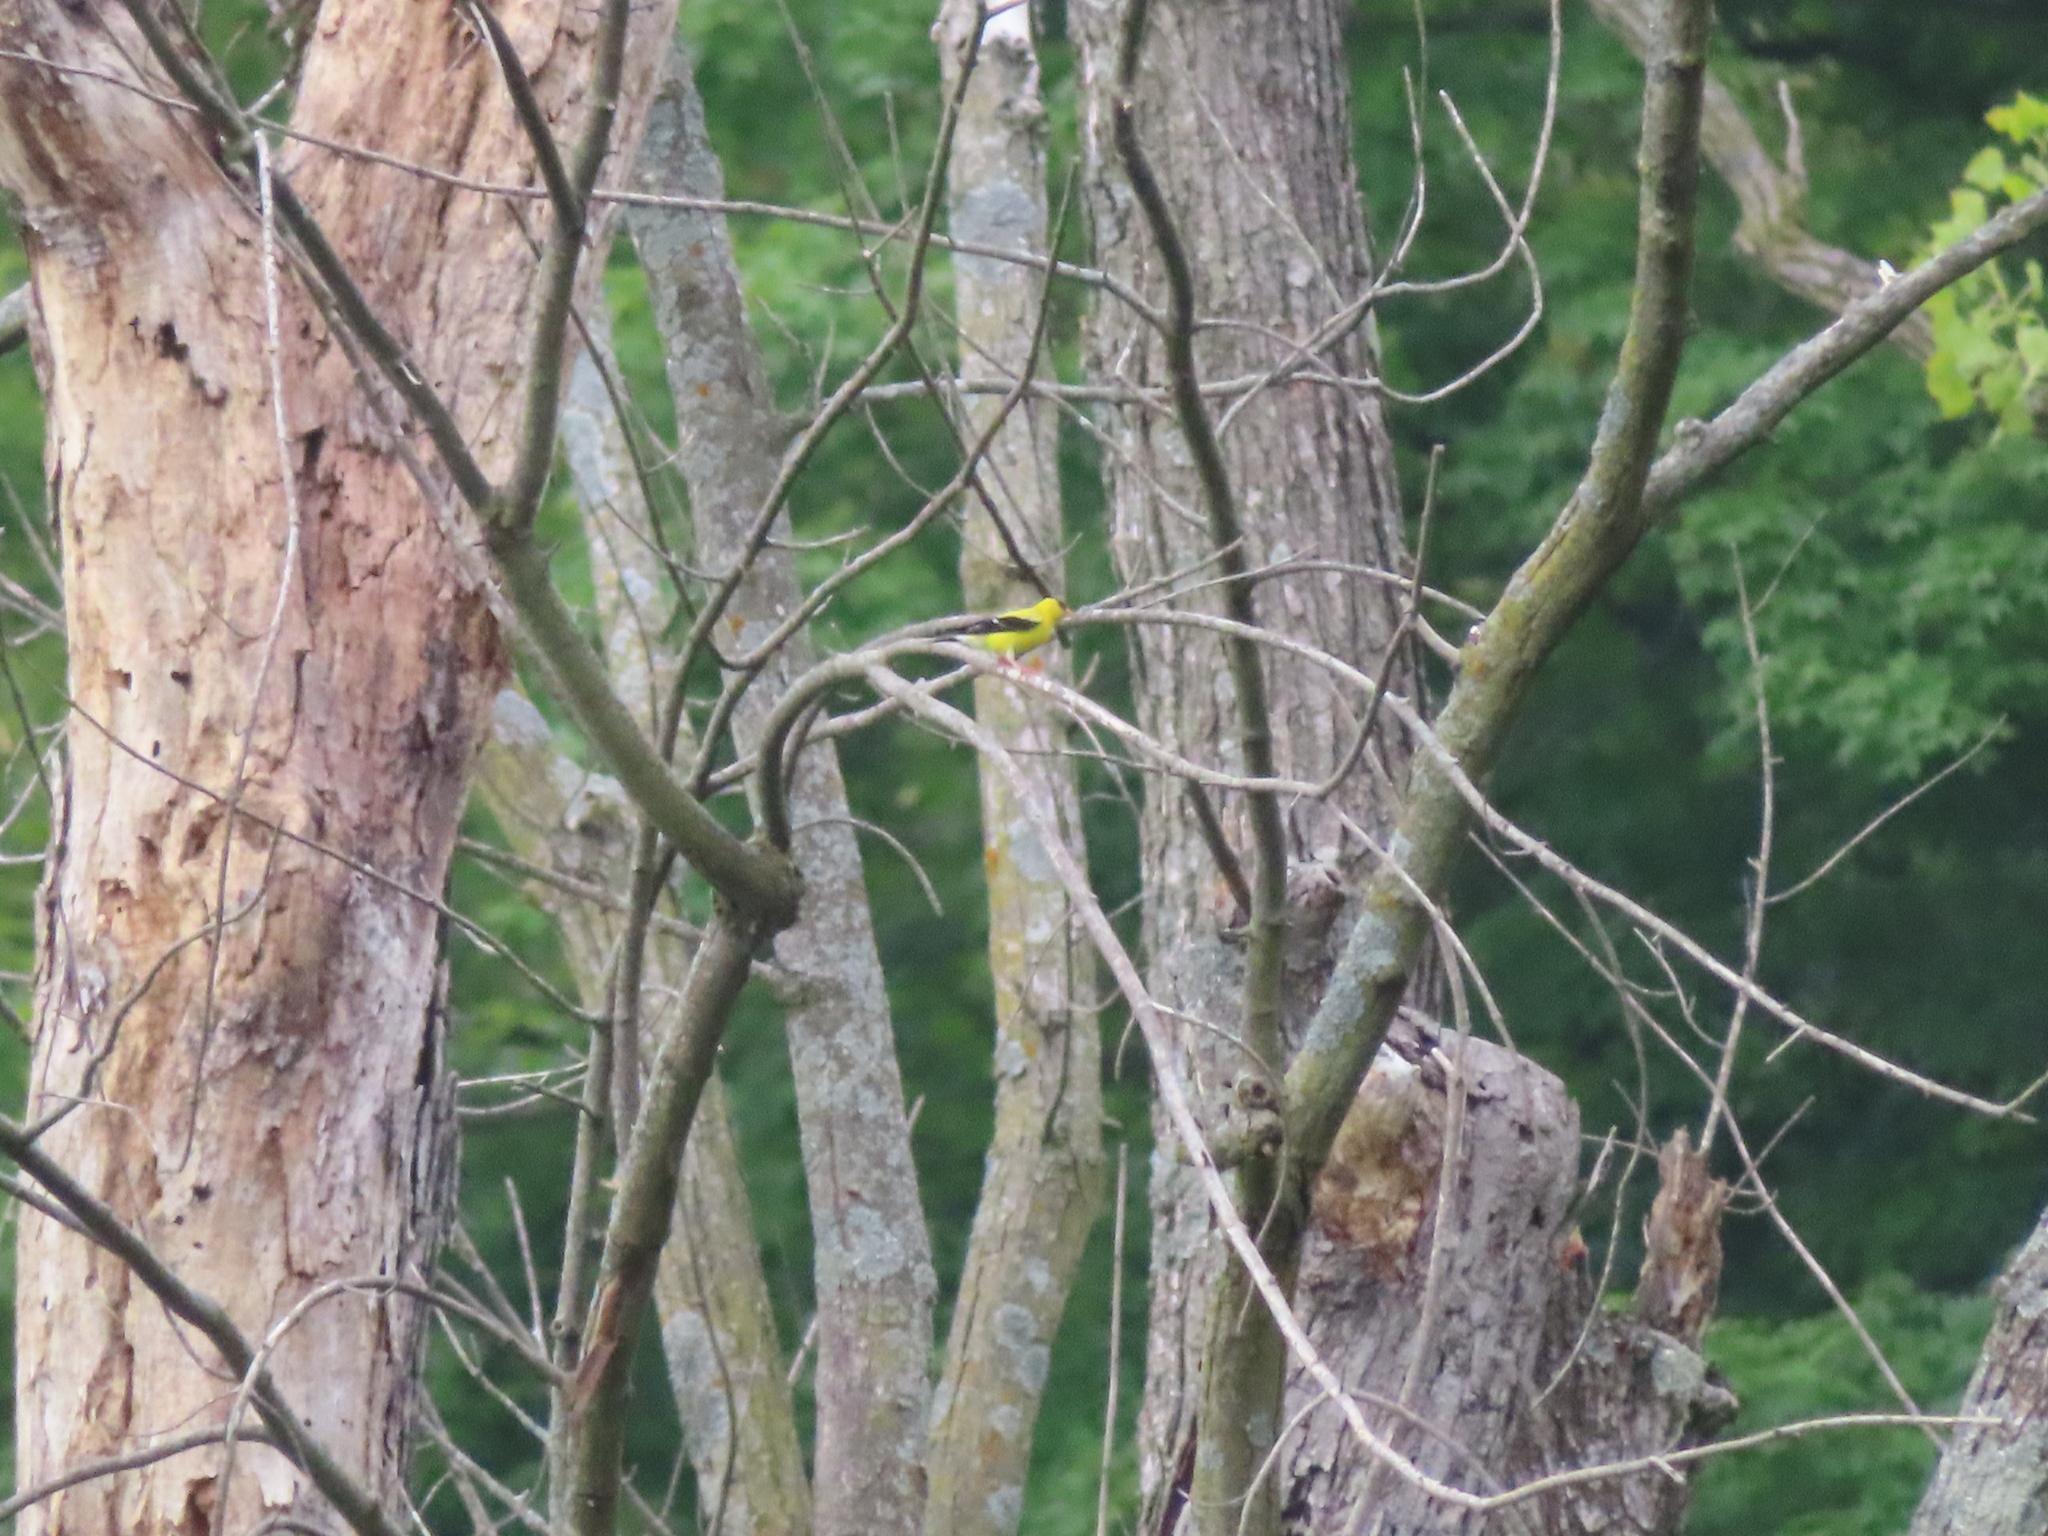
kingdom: Animalia
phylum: Chordata
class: Aves
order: Passeriformes
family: Fringillidae
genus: Spinus
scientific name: Spinus tristis
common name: American goldfinch
